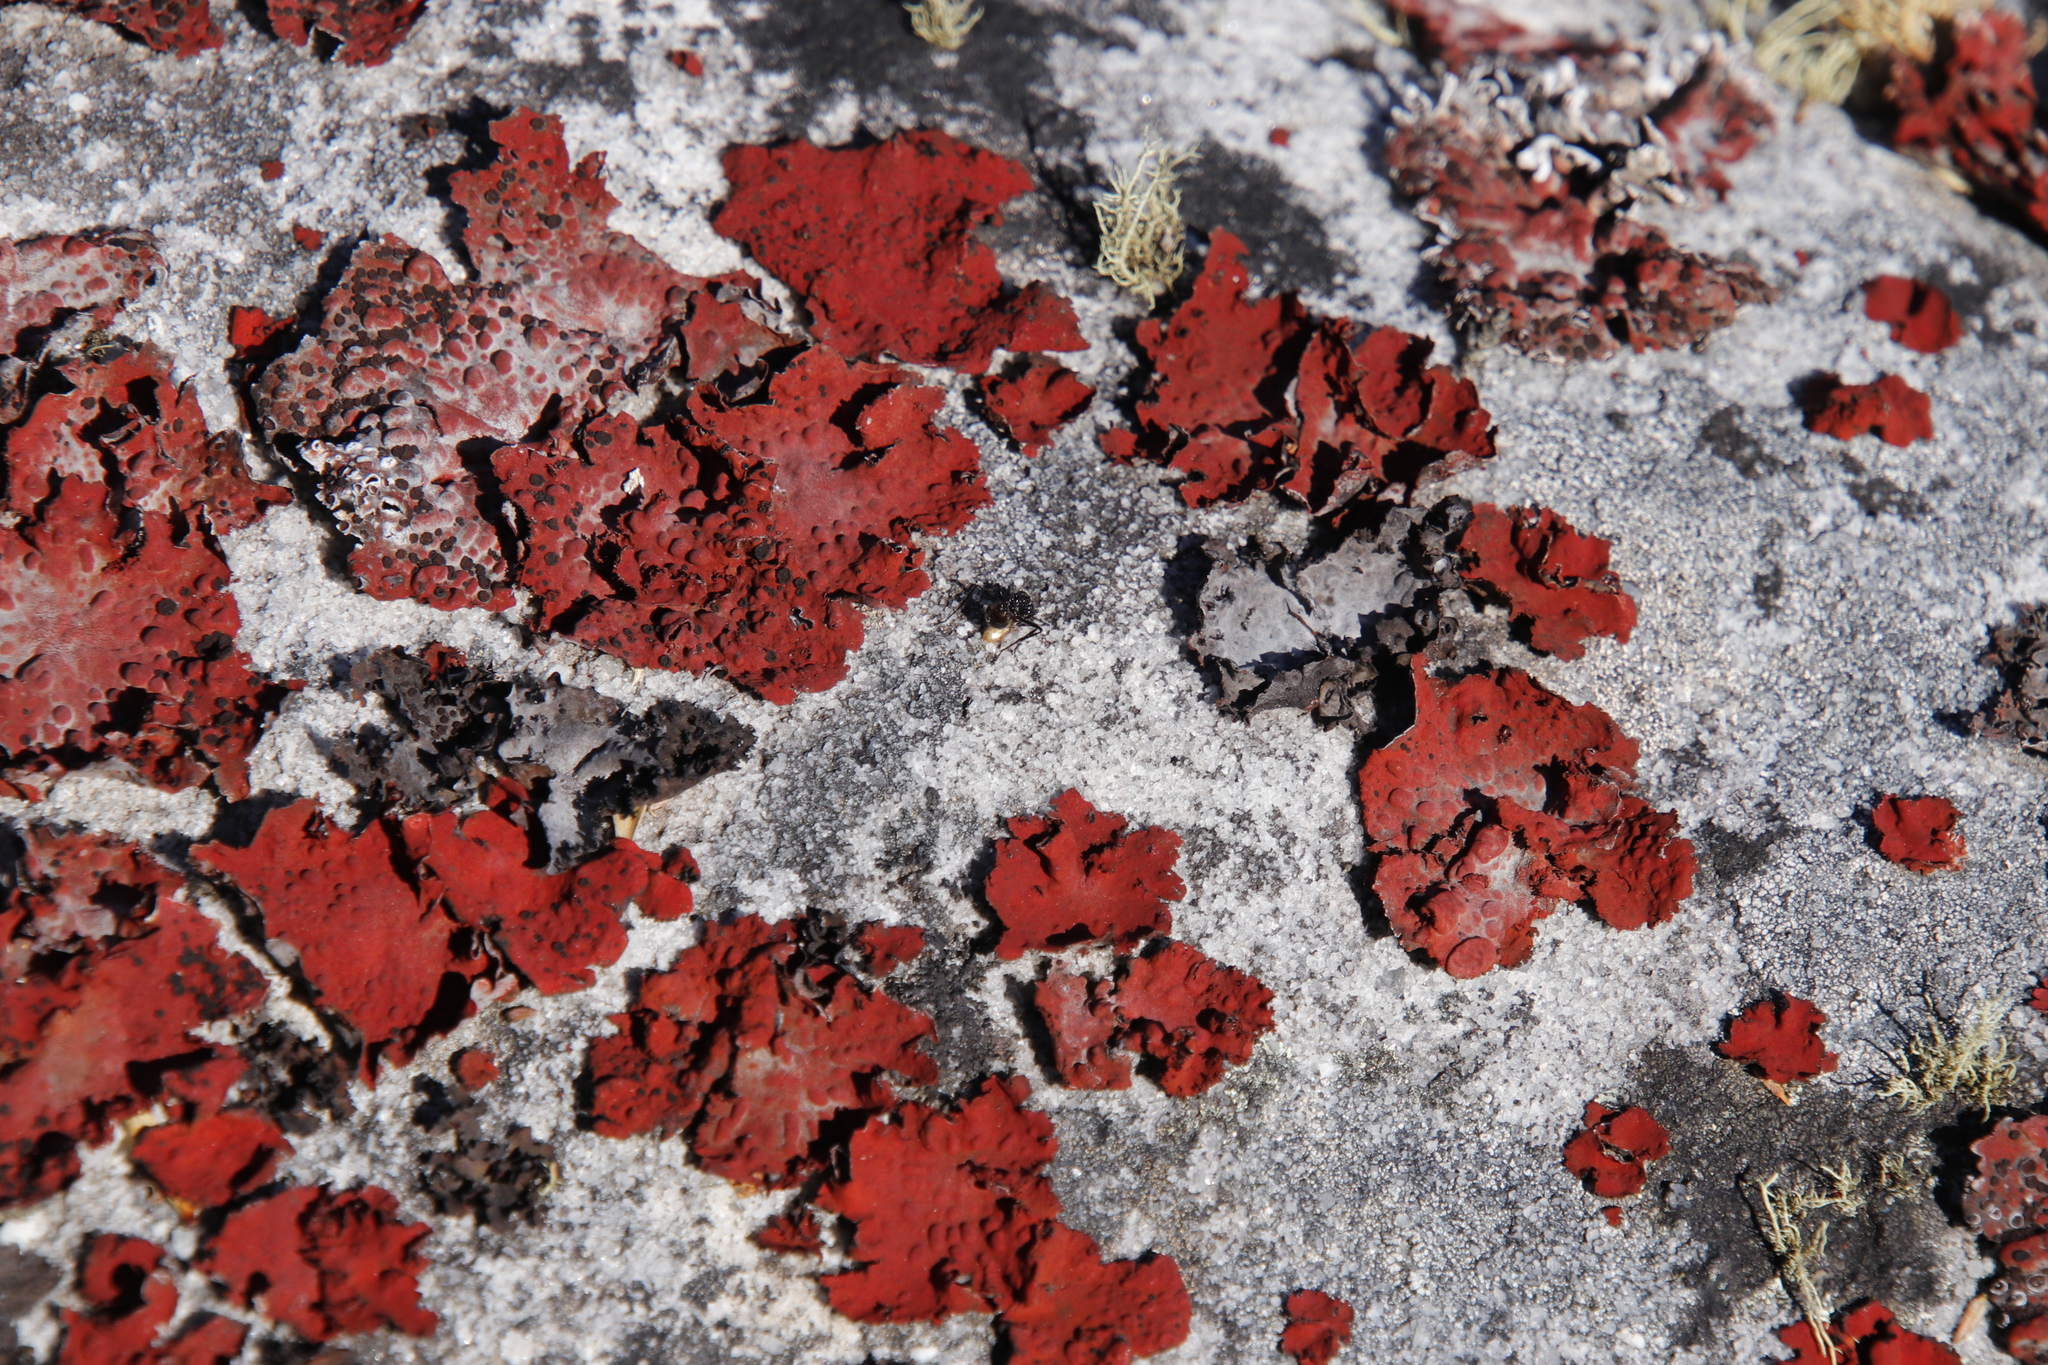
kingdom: Fungi
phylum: Ascomycota
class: Lecanoromycetes
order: Umbilicariales
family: Umbilicariaceae
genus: Lasallia
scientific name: Lasallia rubiginosa
